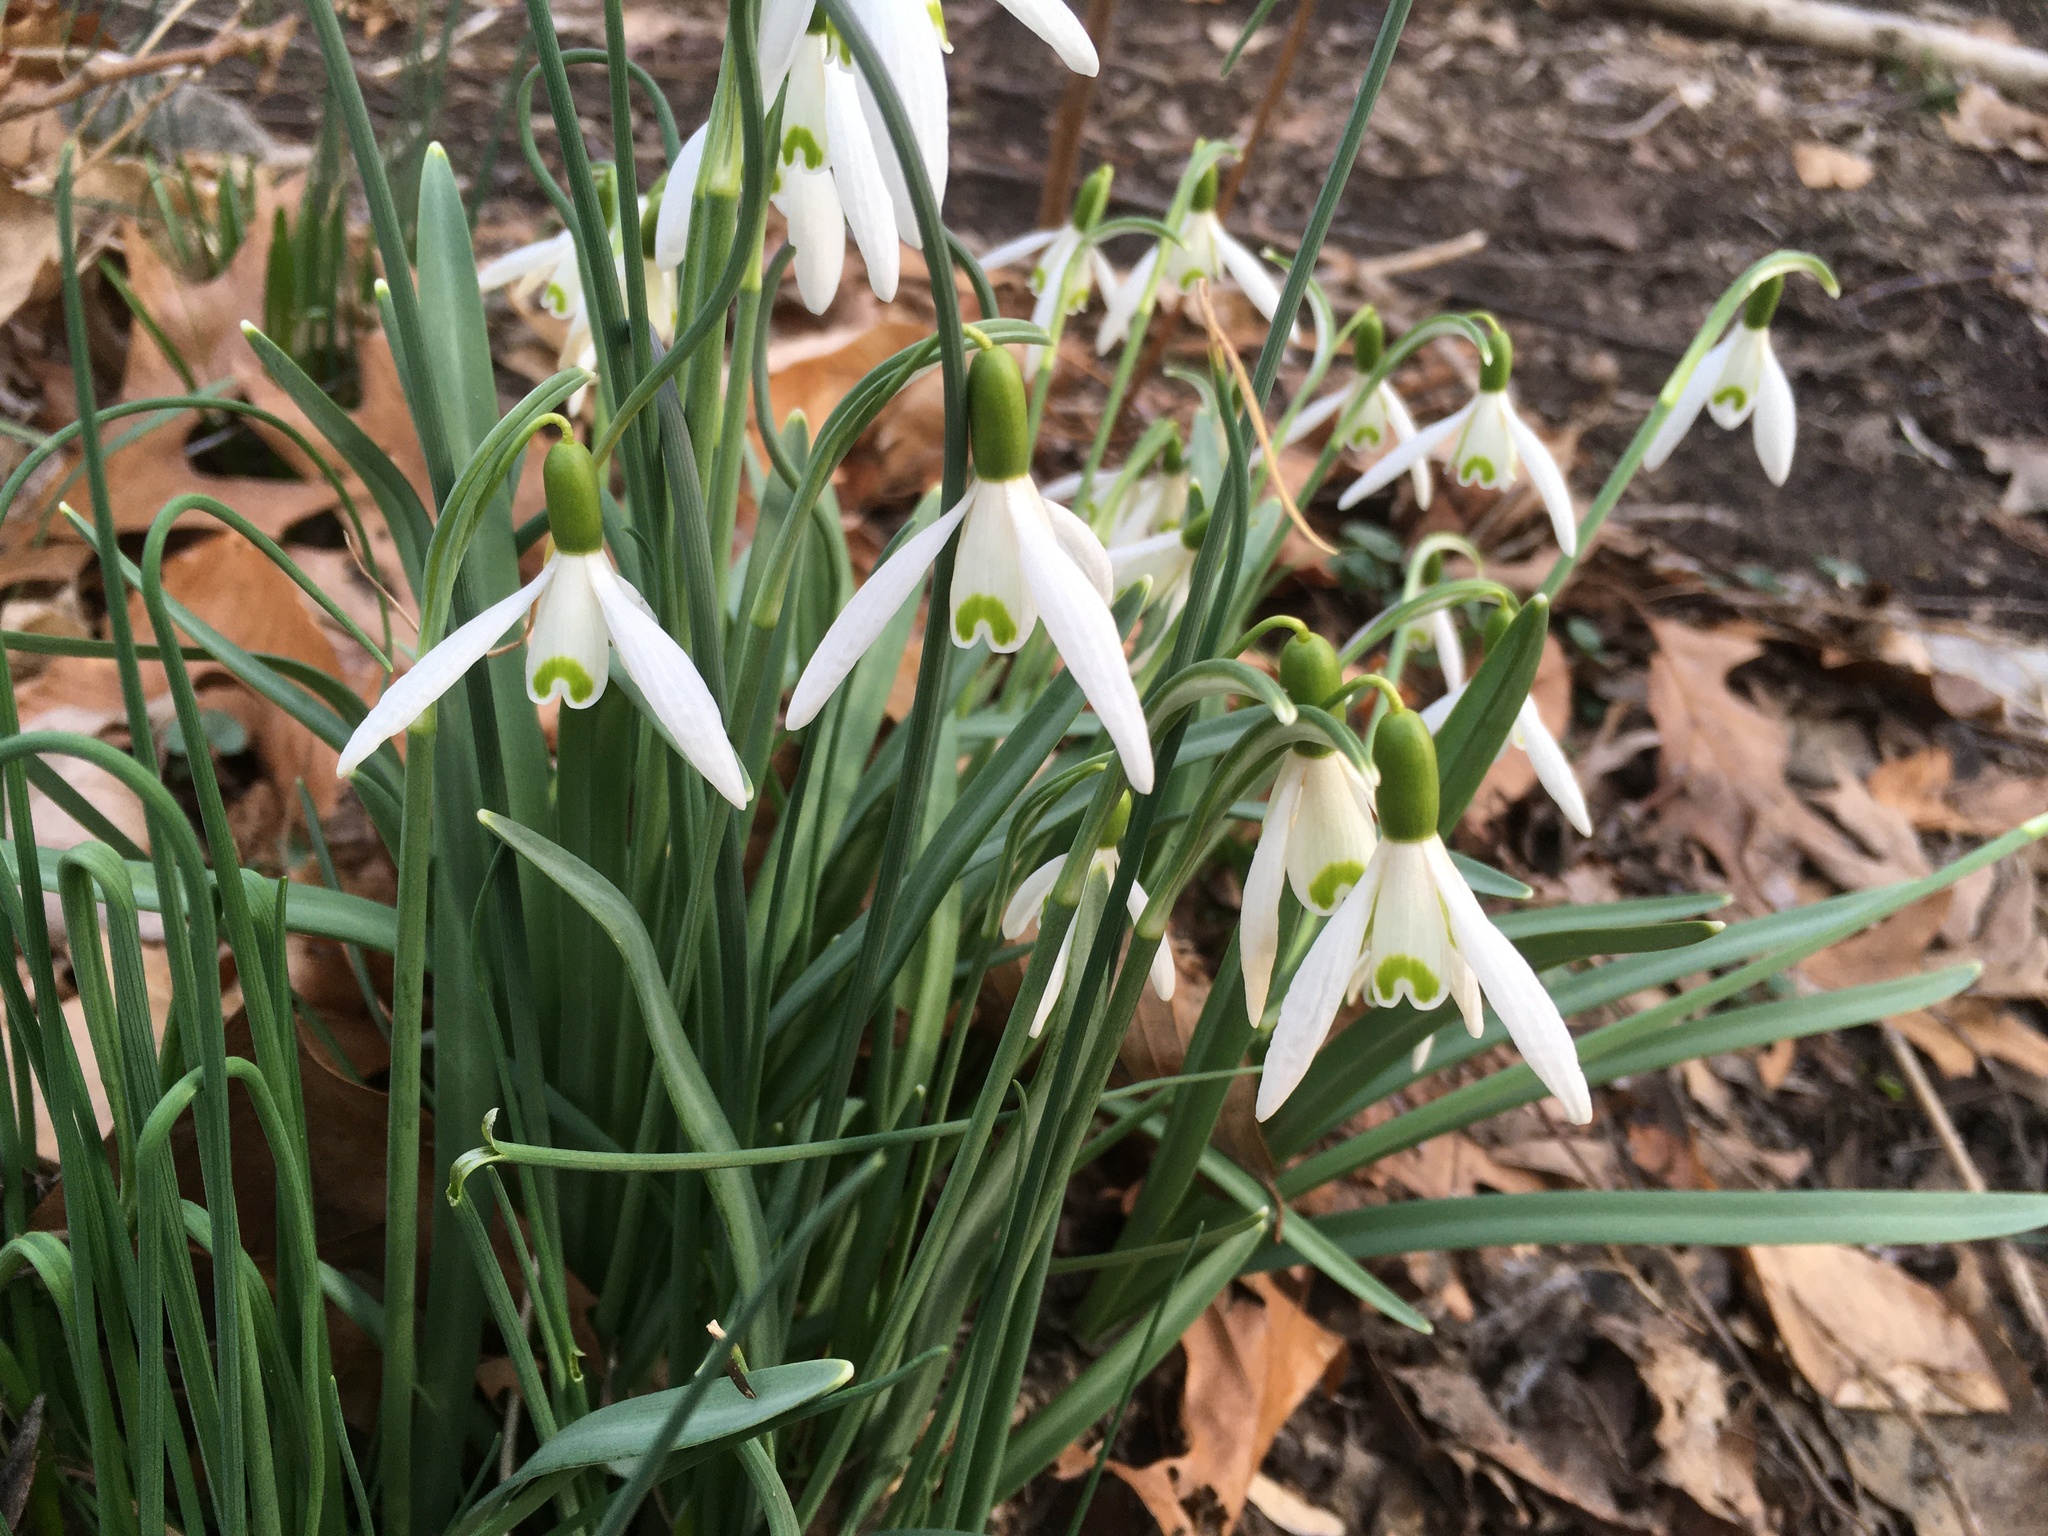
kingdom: Plantae
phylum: Tracheophyta
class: Liliopsida
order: Asparagales
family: Amaryllidaceae
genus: Galanthus
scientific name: Galanthus nivalis
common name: Snowdrop
